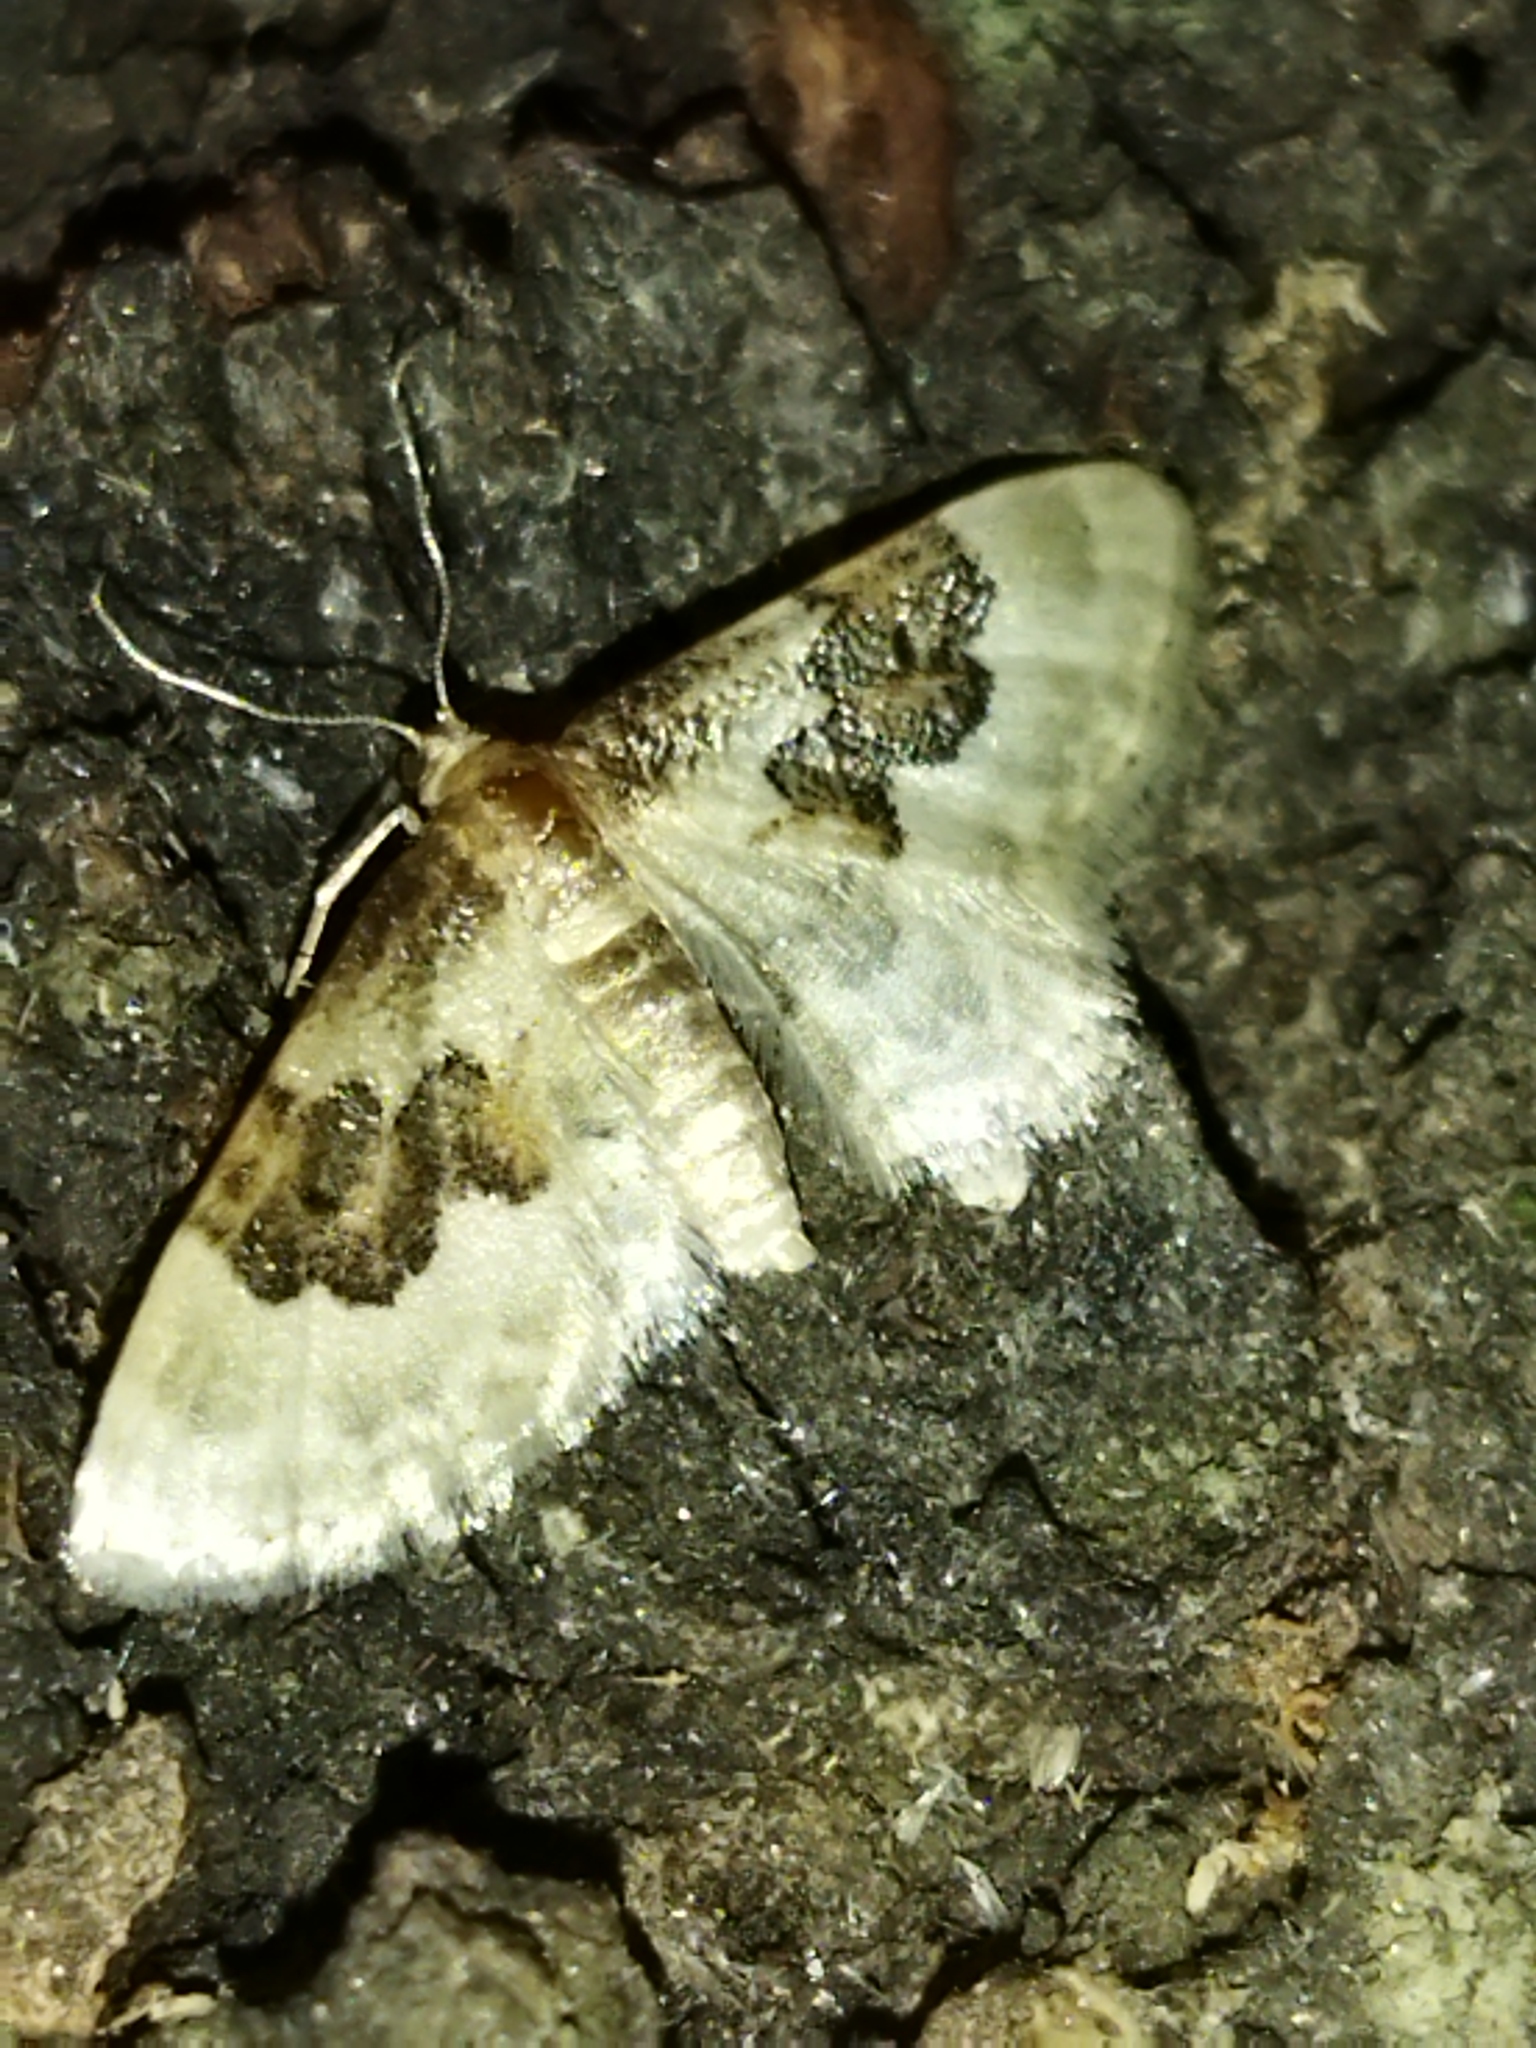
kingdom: Animalia
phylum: Arthropoda
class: Insecta
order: Lepidoptera
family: Geometridae
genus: Idaea
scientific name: Idaea rusticata
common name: Least carpet
